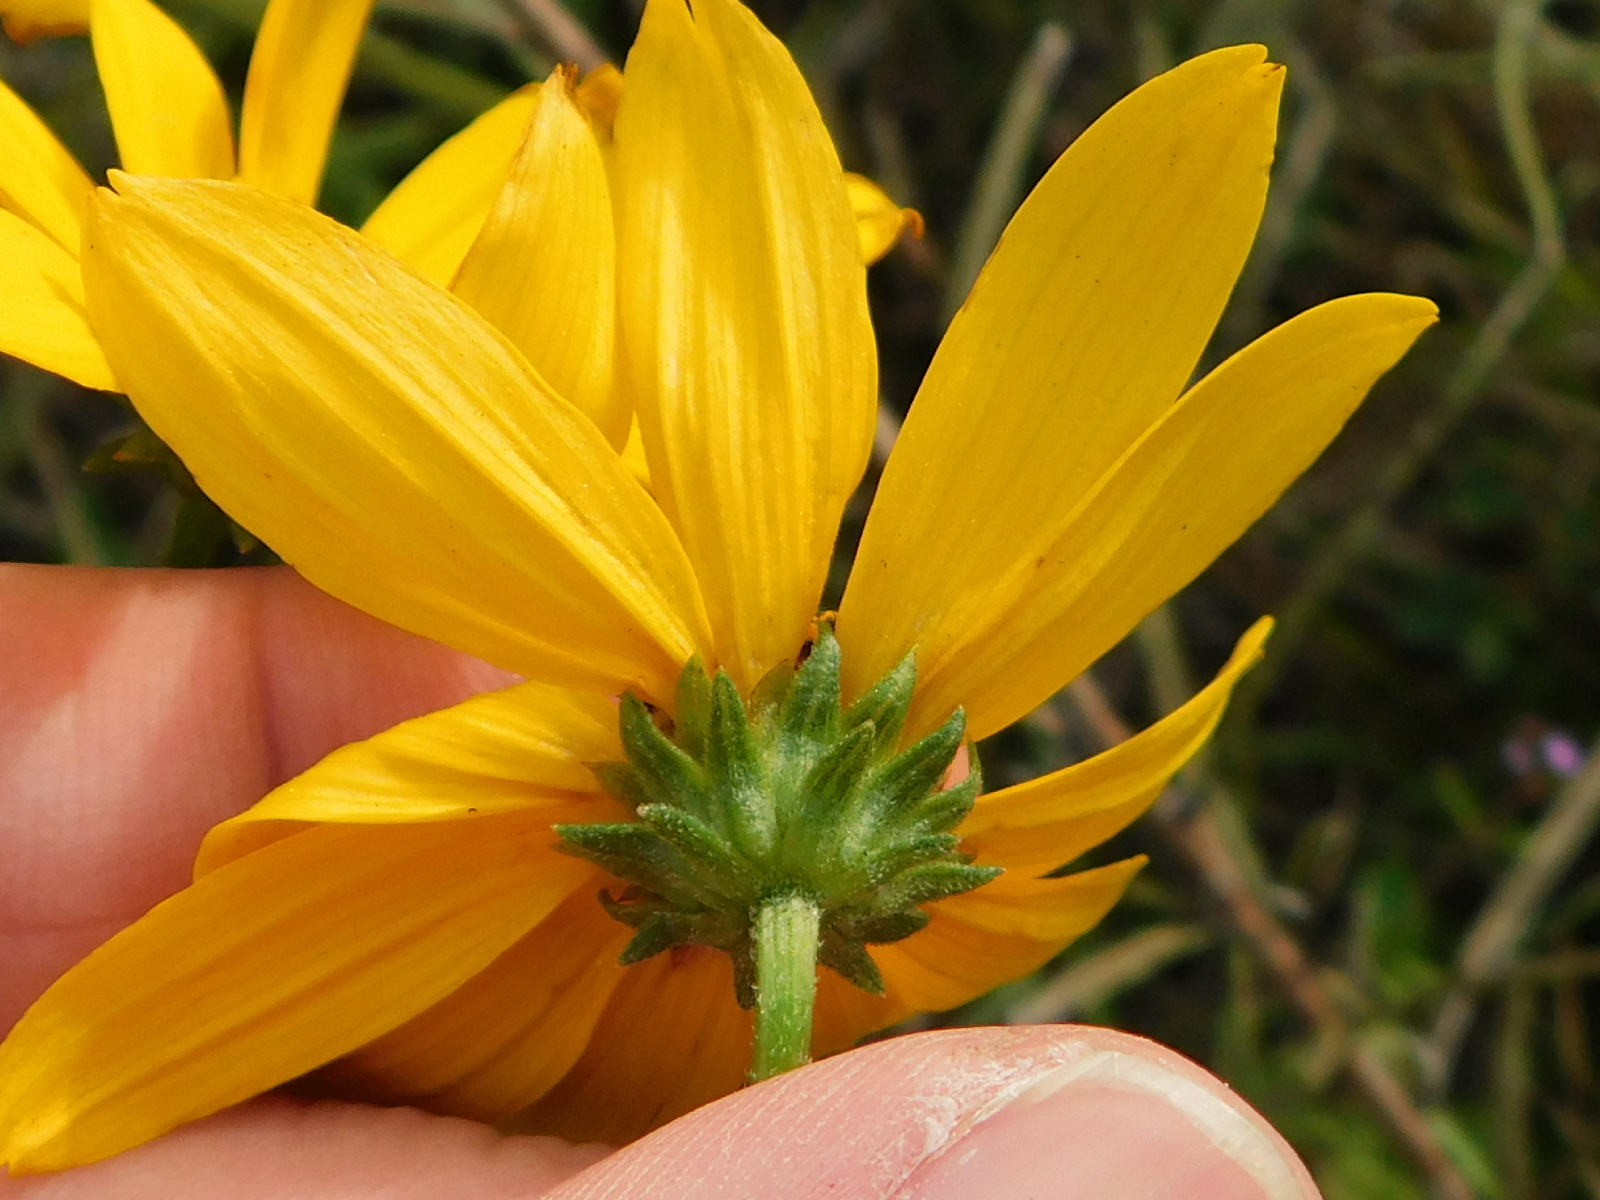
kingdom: Plantae
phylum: Tracheophyta
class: Magnoliopsida
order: Asterales
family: Asteraceae
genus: Helianthus
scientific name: Helianthus angustifolius
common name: Swamp sunflower
